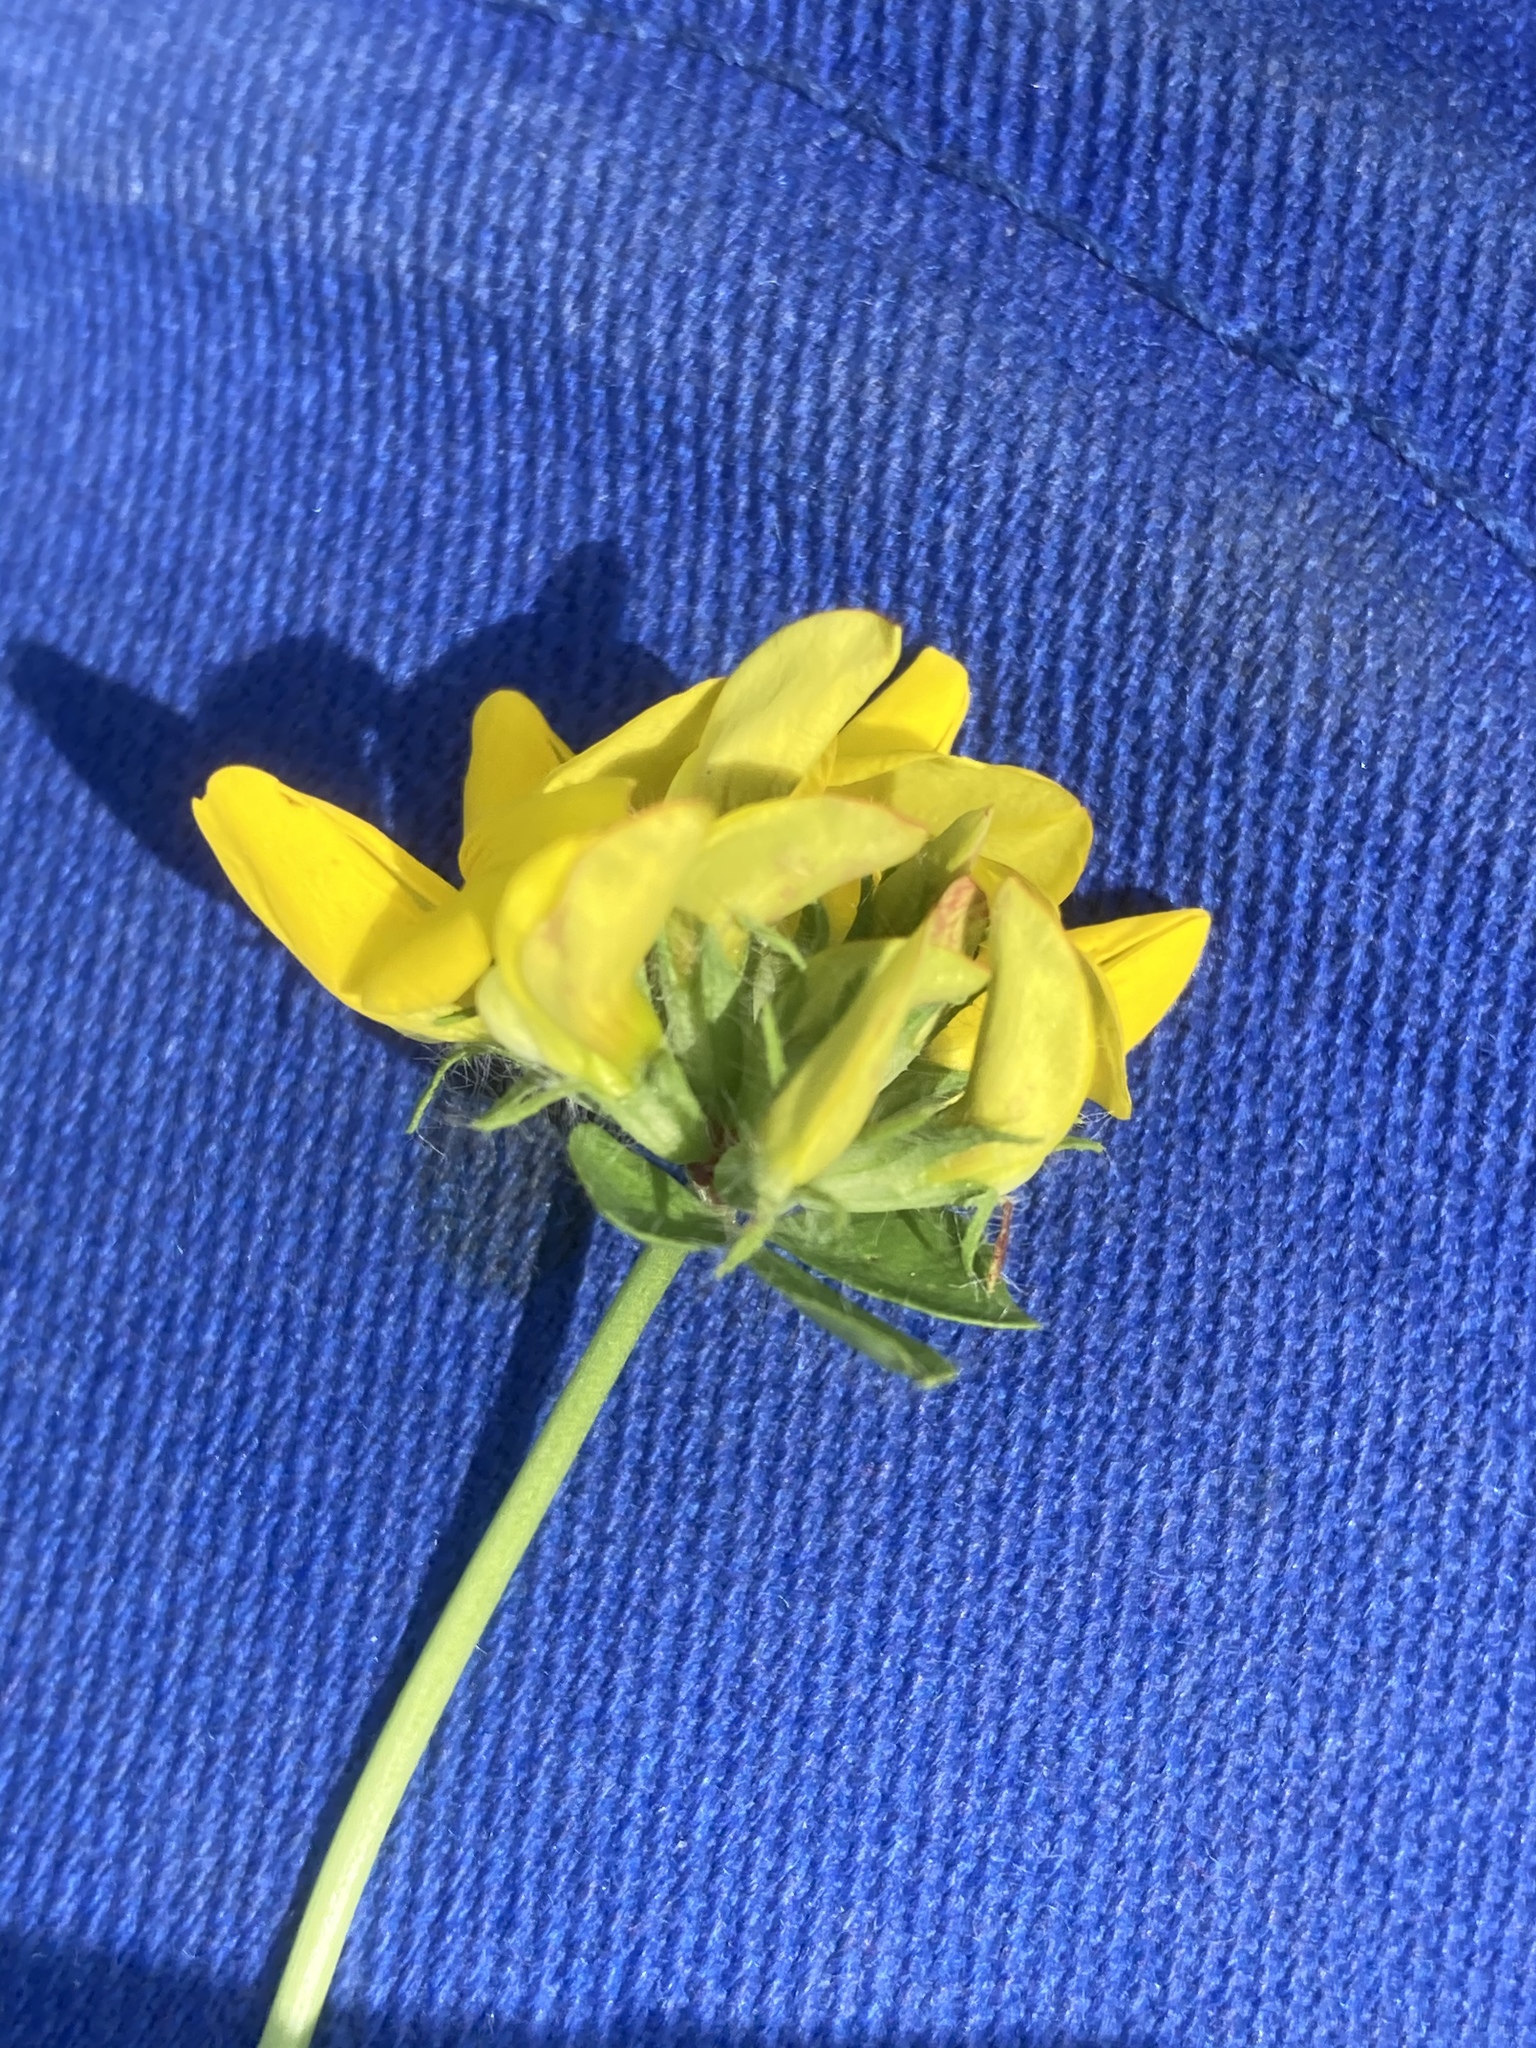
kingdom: Plantae
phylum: Tracheophyta
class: Magnoliopsida
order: Fabales
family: Fabaceae
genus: Lotus
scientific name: Lotus pedunculatus
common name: Greater birdsfoot-trefoil
